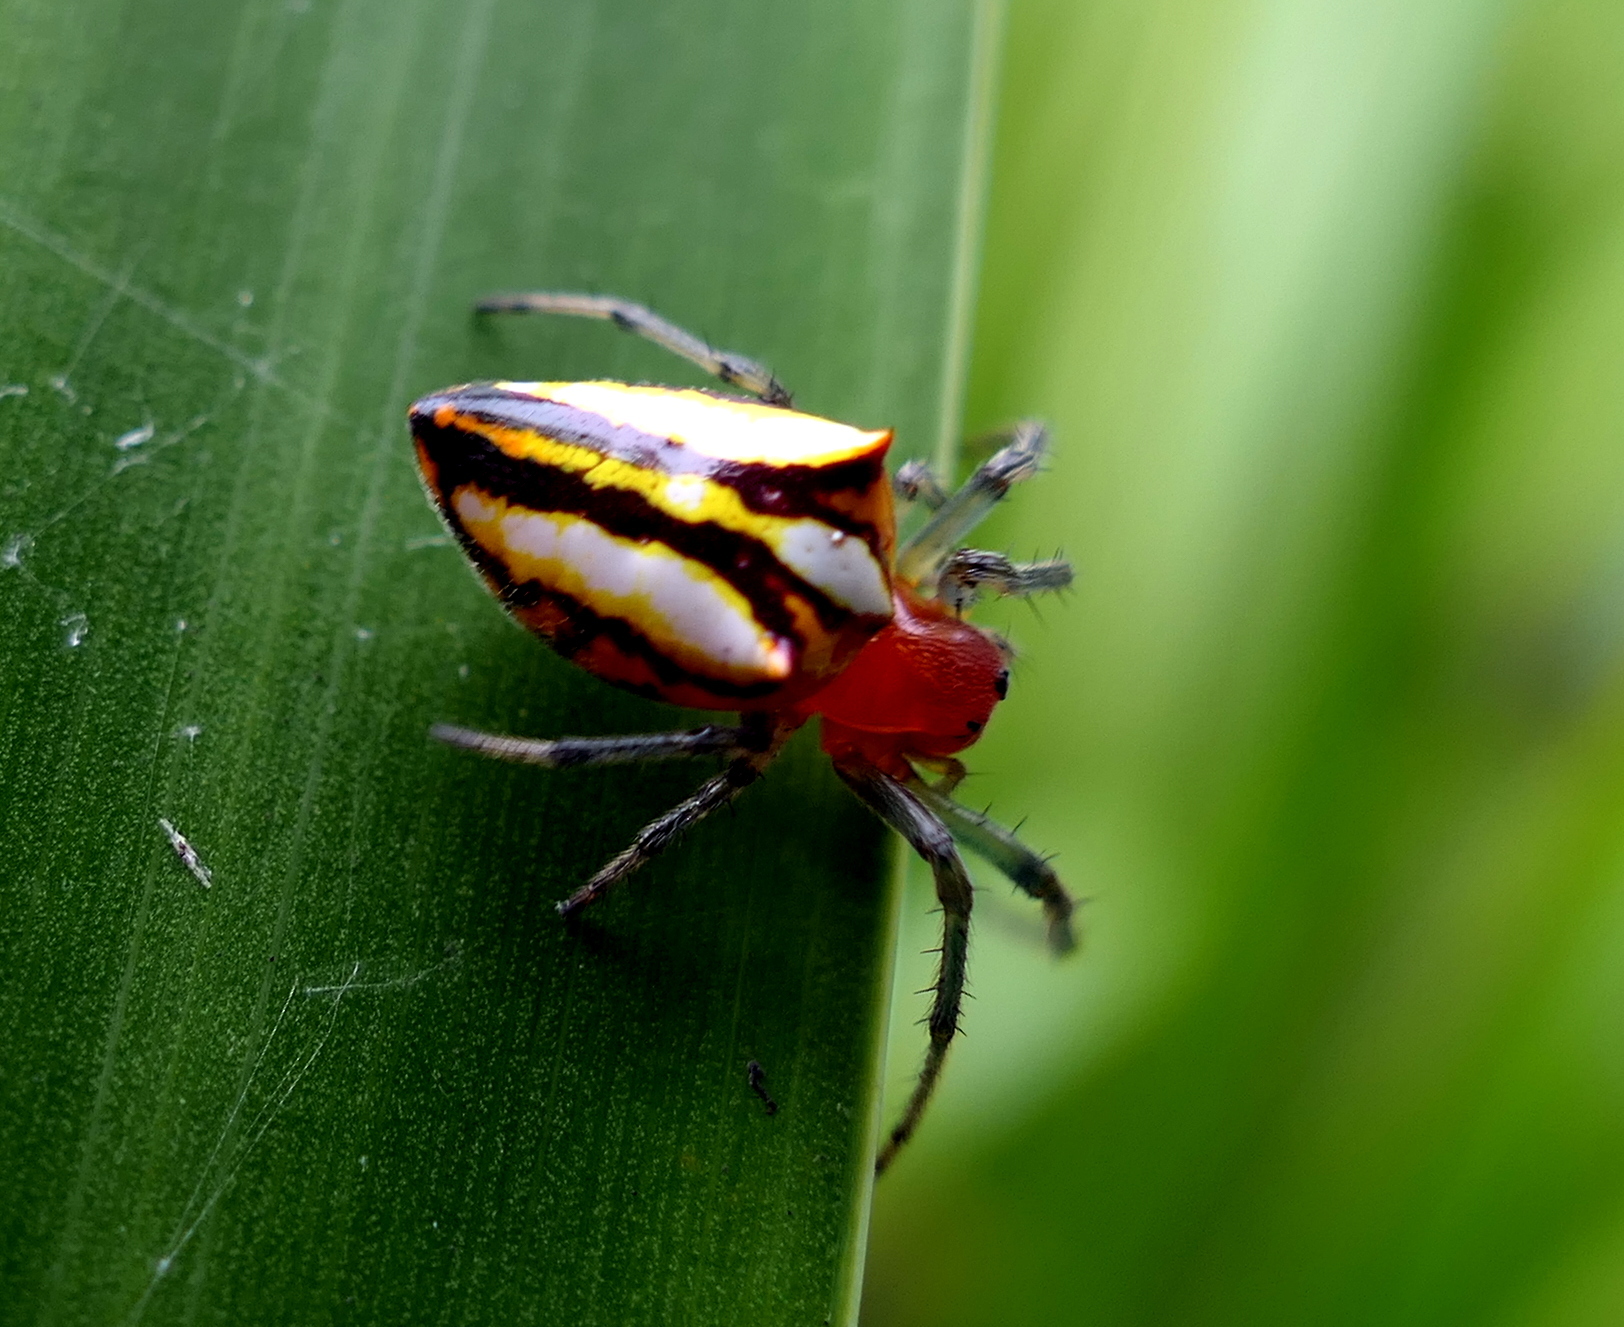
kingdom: Animalia
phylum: Arthropoda
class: Arachnida
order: Araneae
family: Araneidae
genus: Alpaida
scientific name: Alpaida bicornuta
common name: Orb weavers
